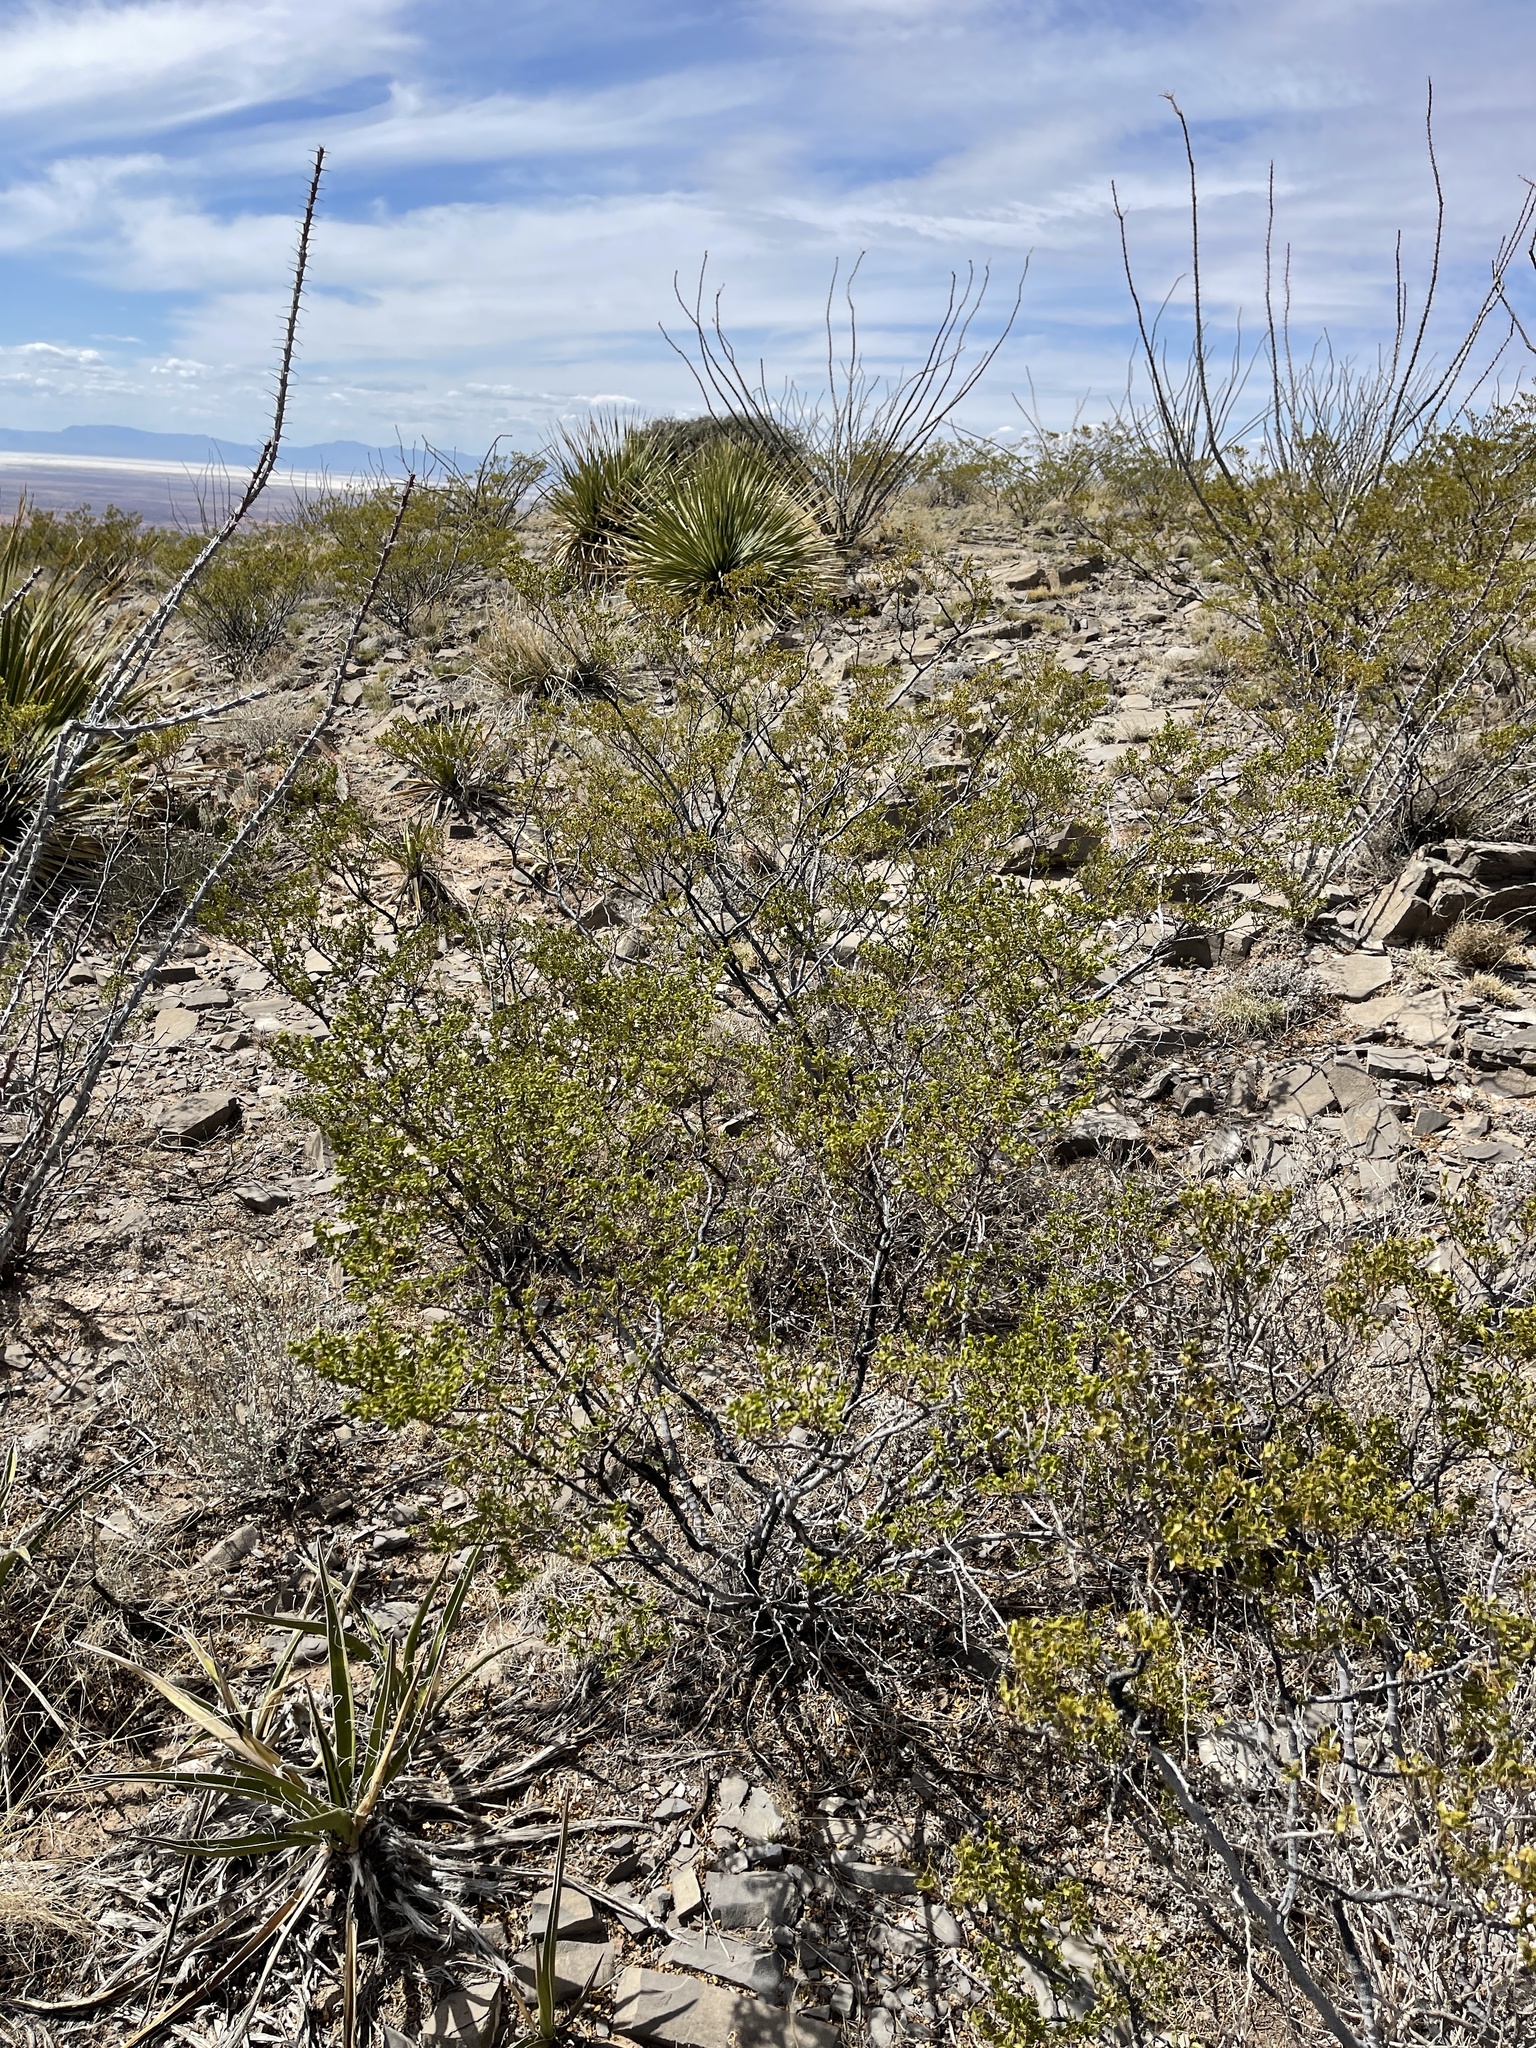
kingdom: Plantae
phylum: Tracheophyta
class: Magnoliopsida
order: Zygophyllales
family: Zygophyllaceae
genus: Larrea
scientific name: Larrea tridentata
